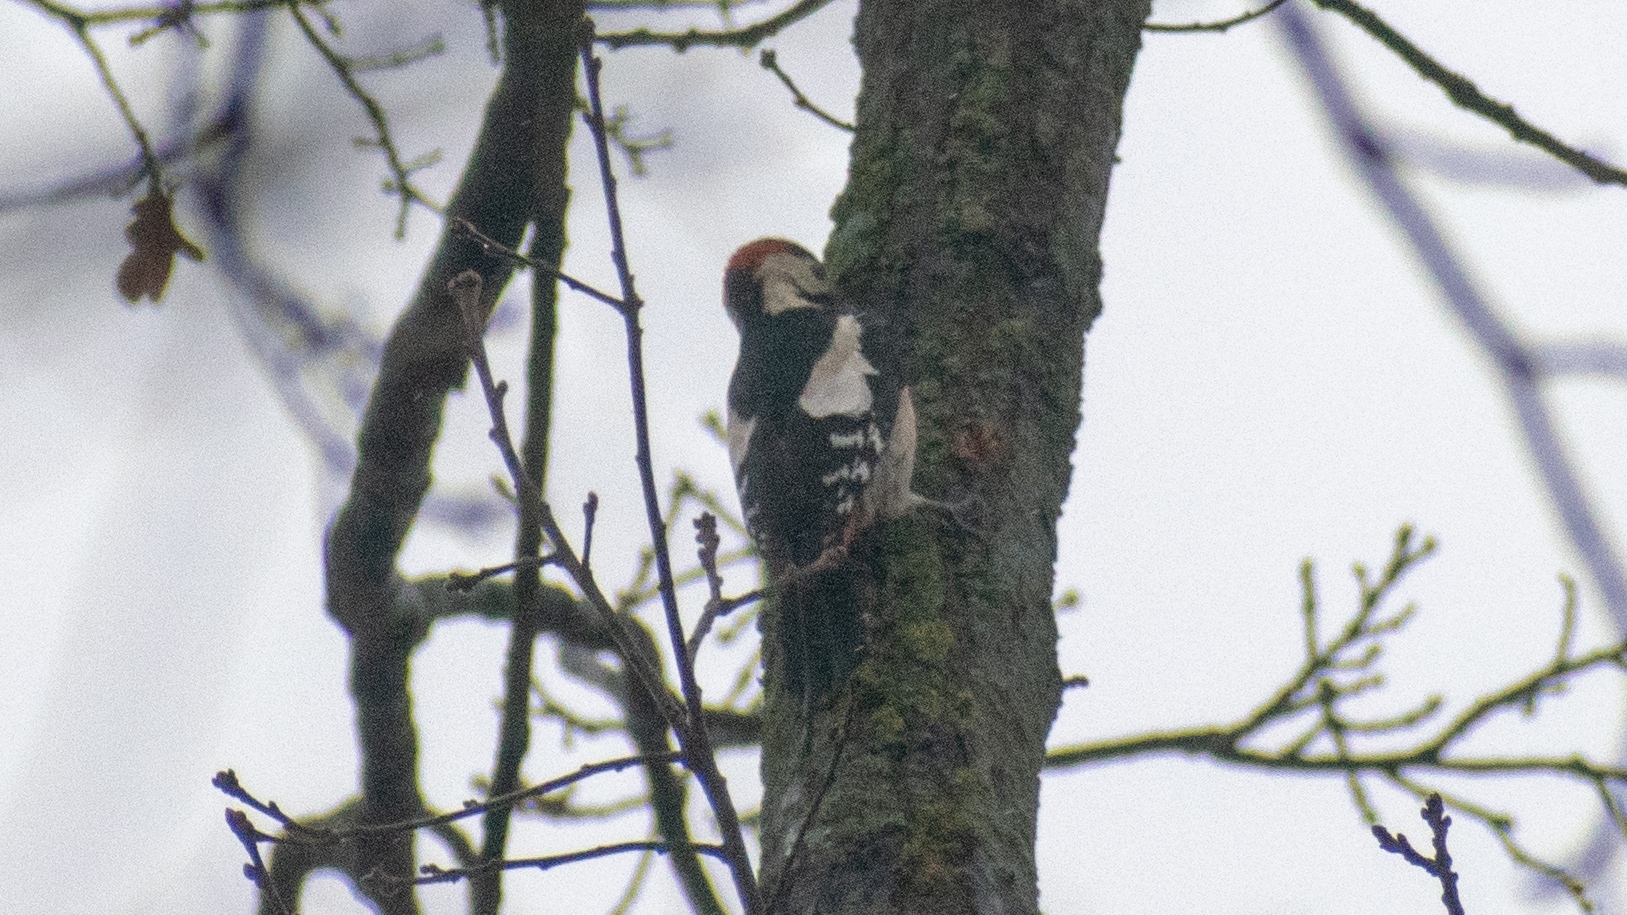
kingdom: Animalia
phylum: Chordata
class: Aves
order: Piciformes
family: Picidae
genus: Dendrocopos
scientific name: Dendrocopos syriacus
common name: Syrian woodpecker
